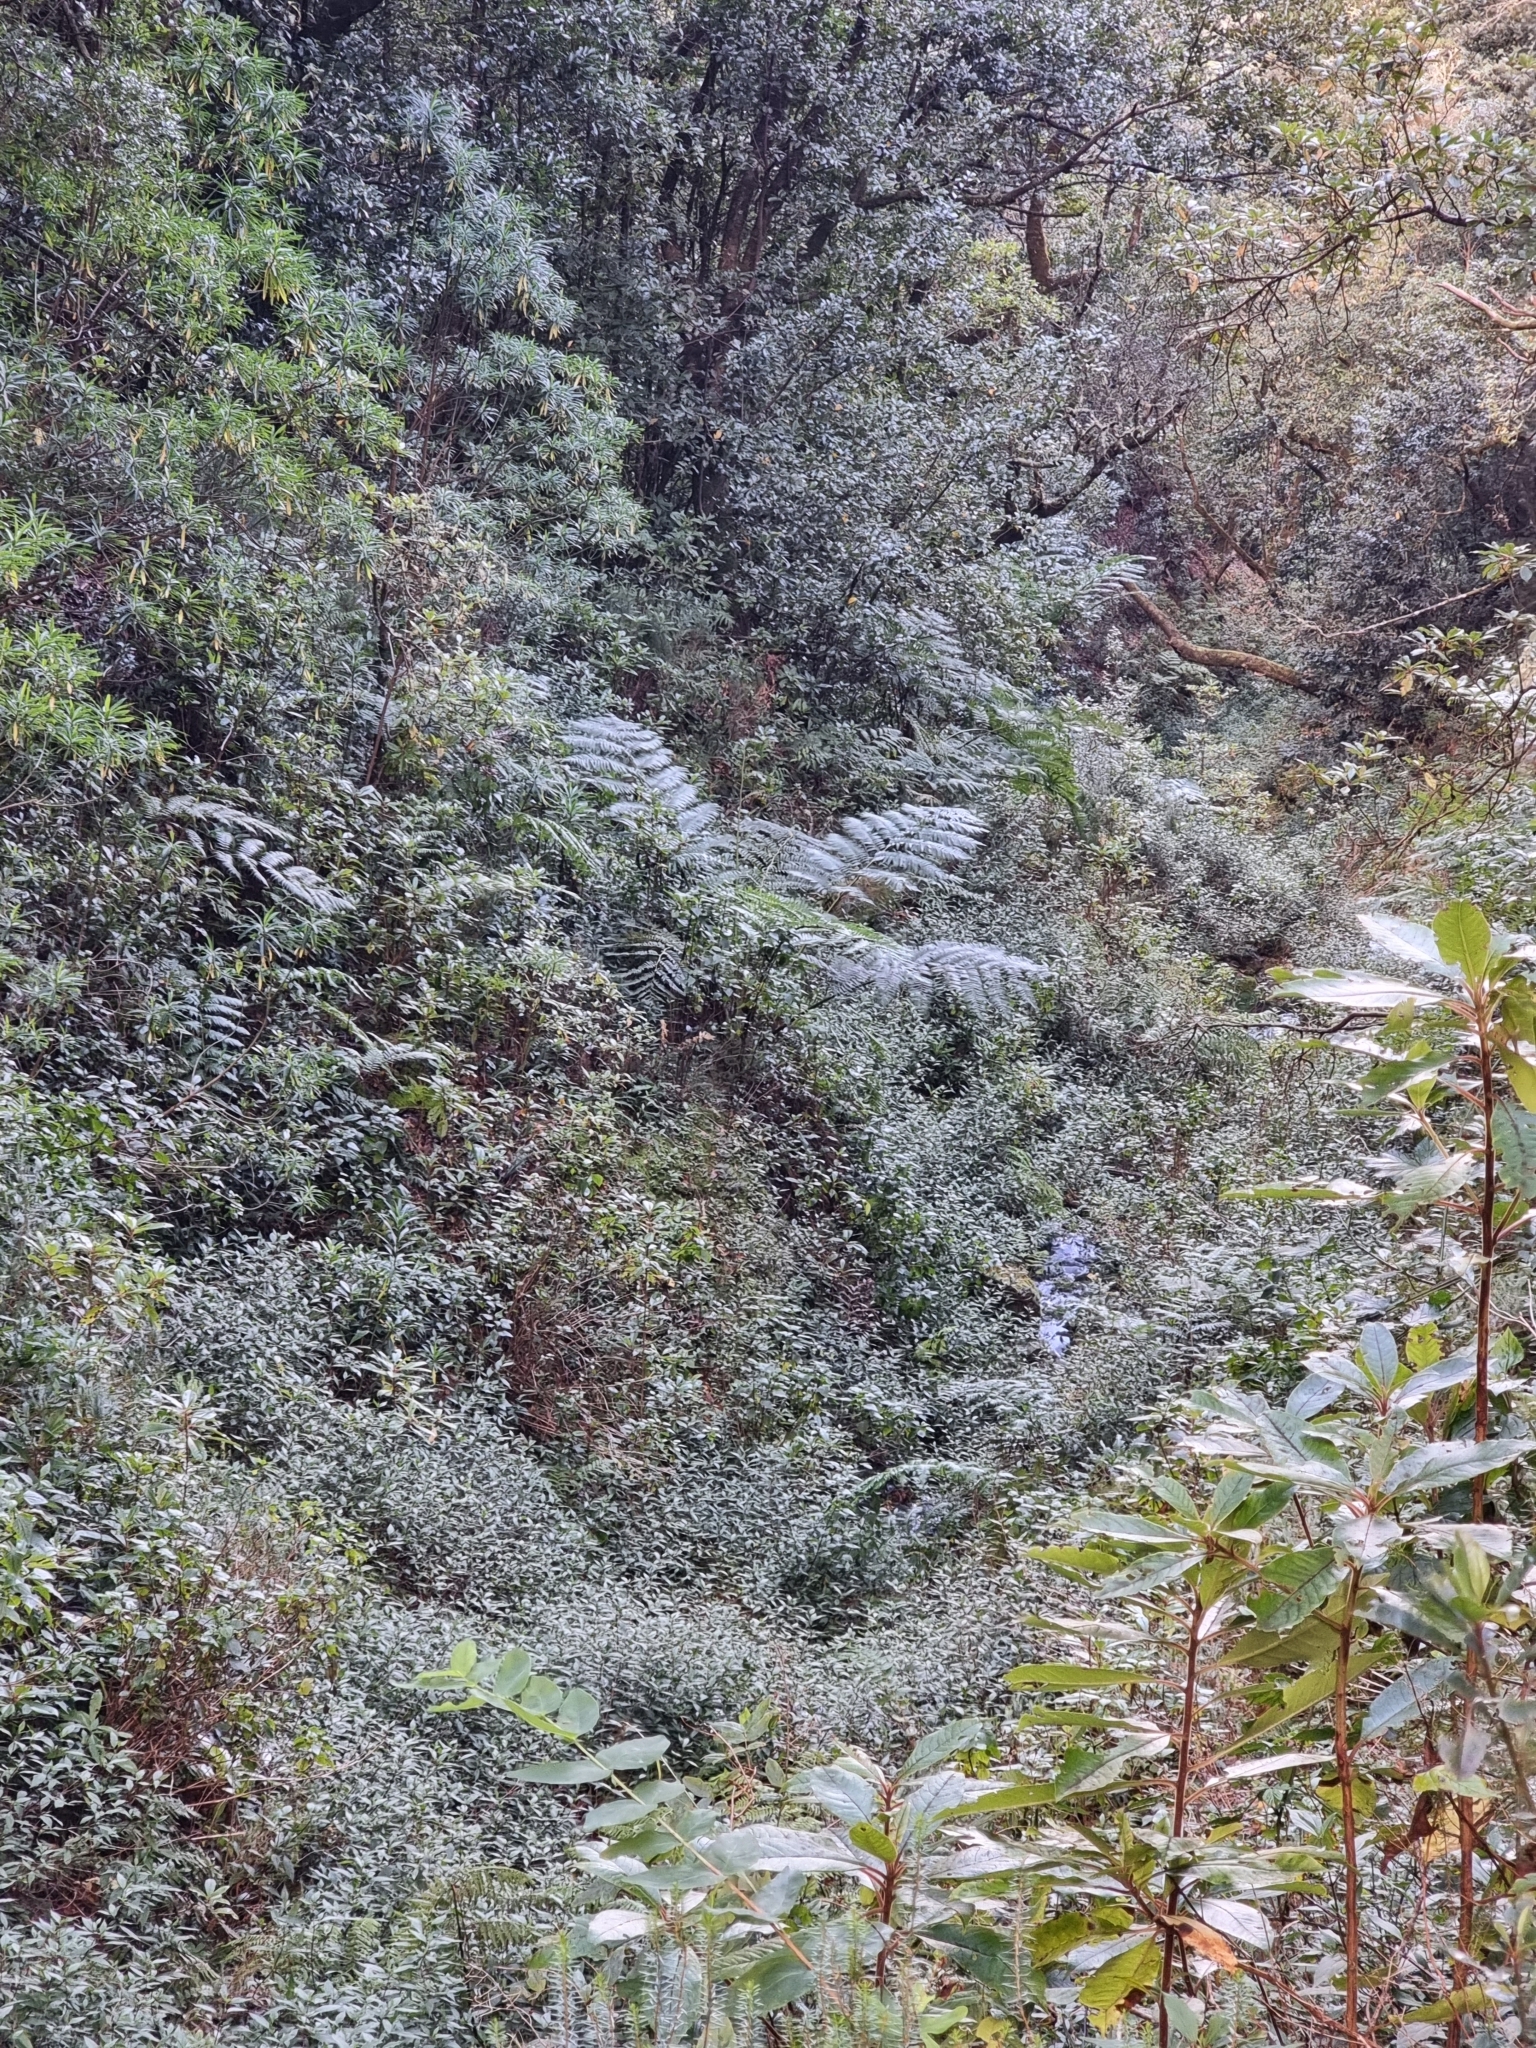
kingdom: Plantae
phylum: Tracheophyta
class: Polypodiopsida
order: Cyatheales
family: Cyatheaceae
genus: Sphaeropteris
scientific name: Sphaeropteris cooperi
